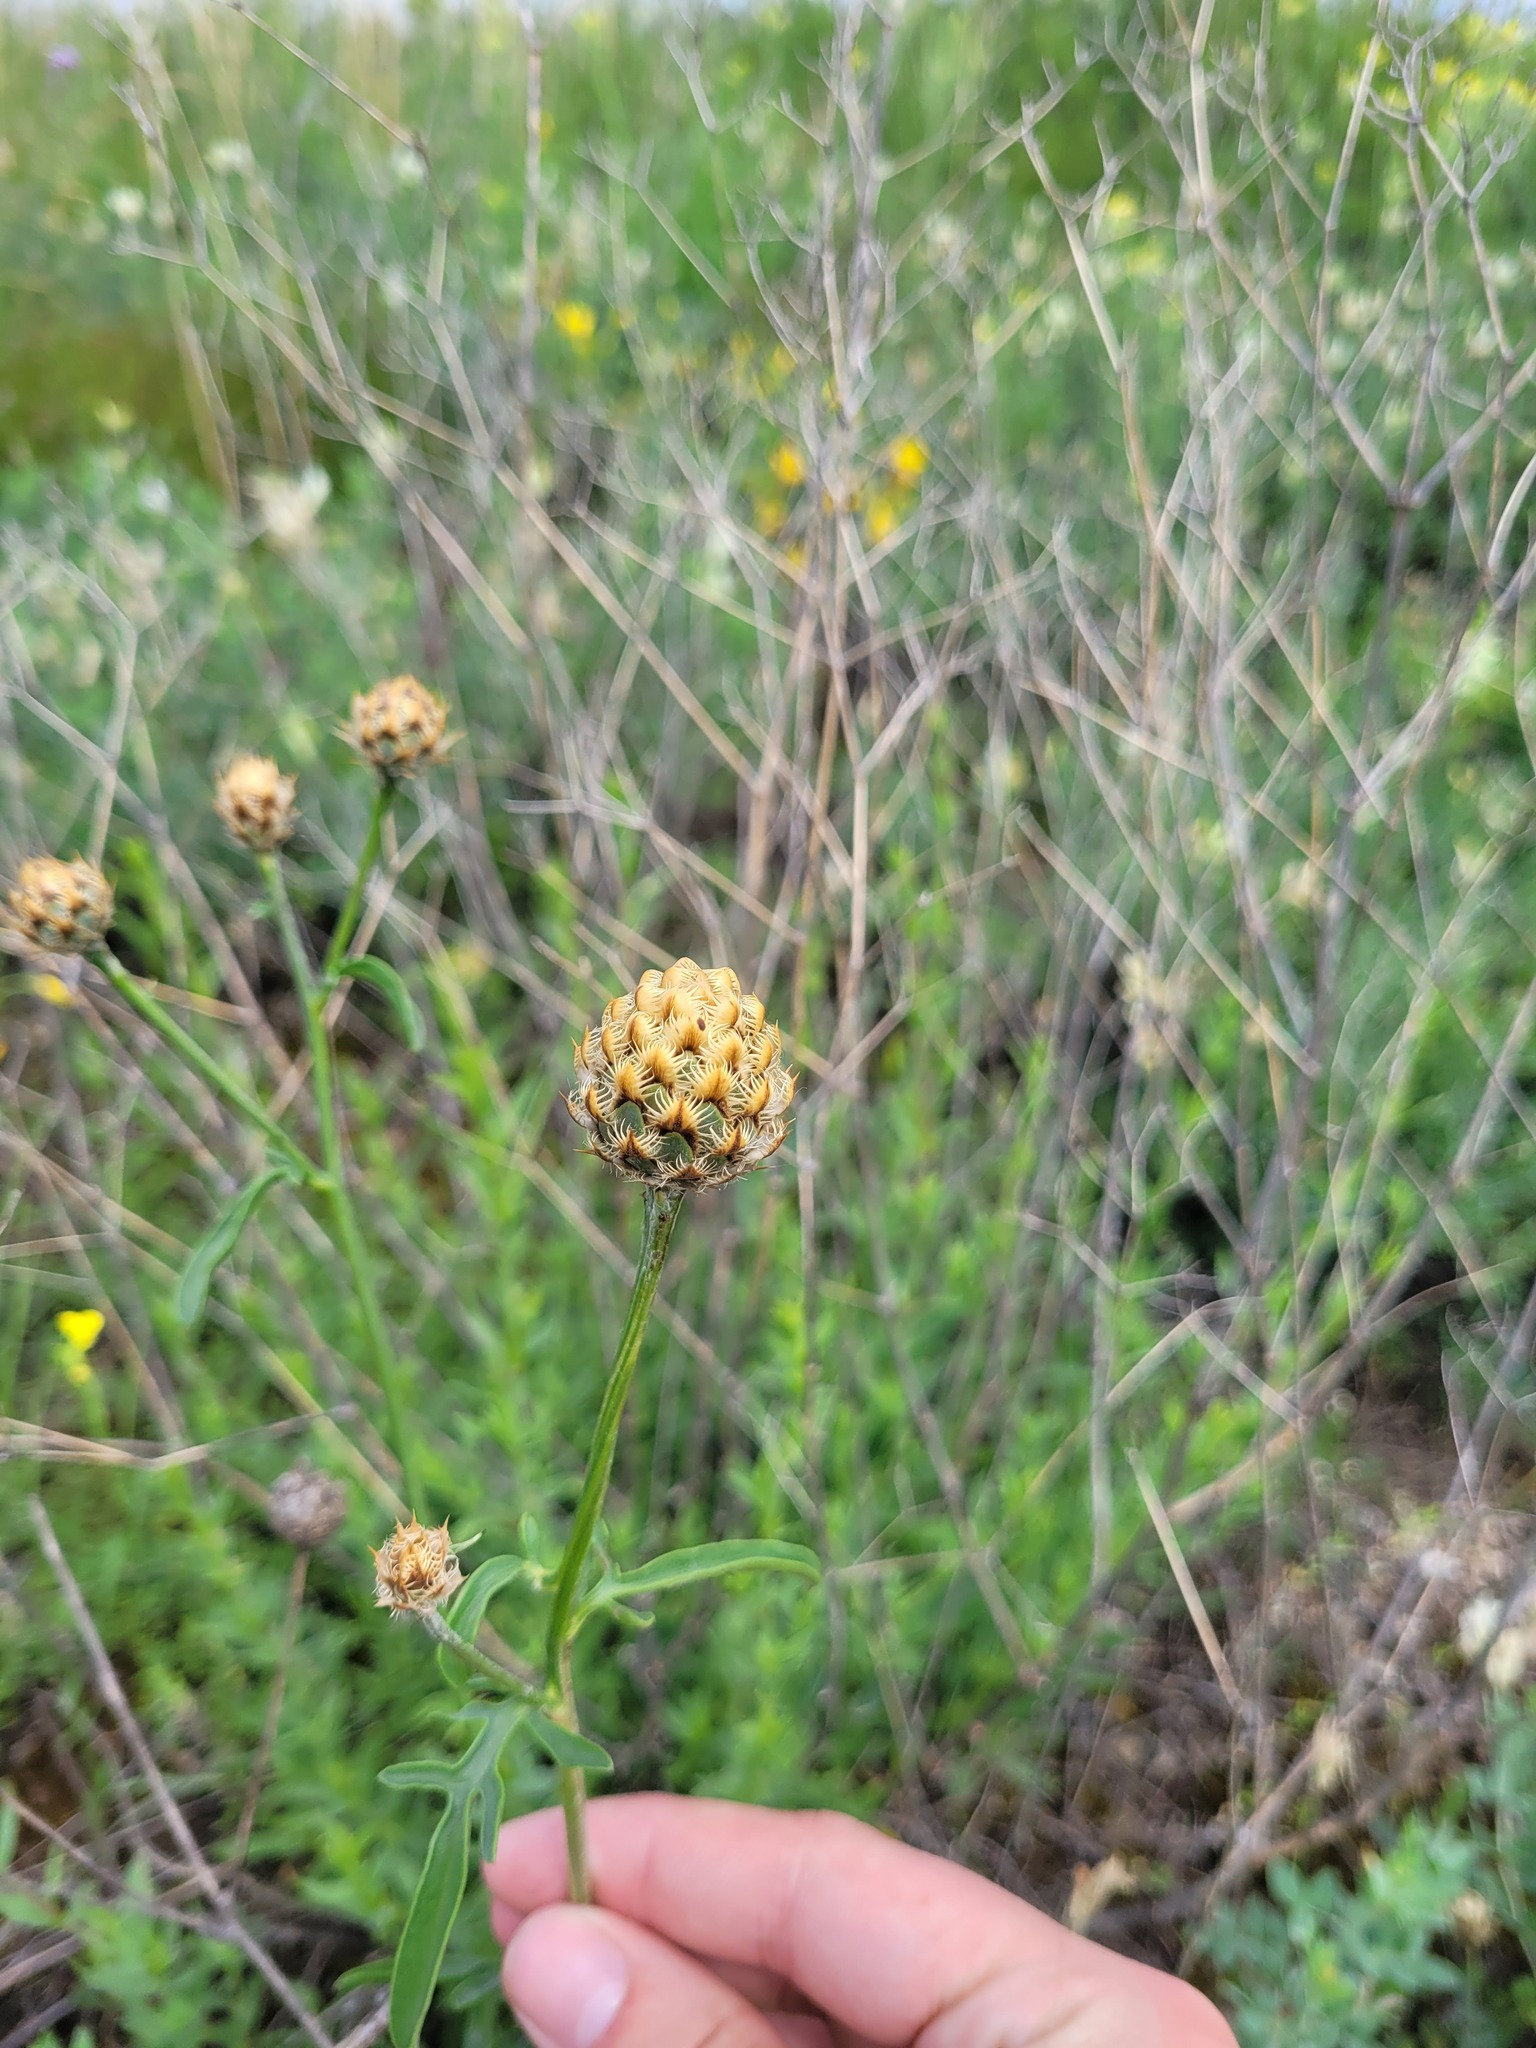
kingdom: Plantae
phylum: Tracheophyta
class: Magnoliopsida
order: Asterales
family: Asteraceae
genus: Centaurea
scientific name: Centaurea orientalis
